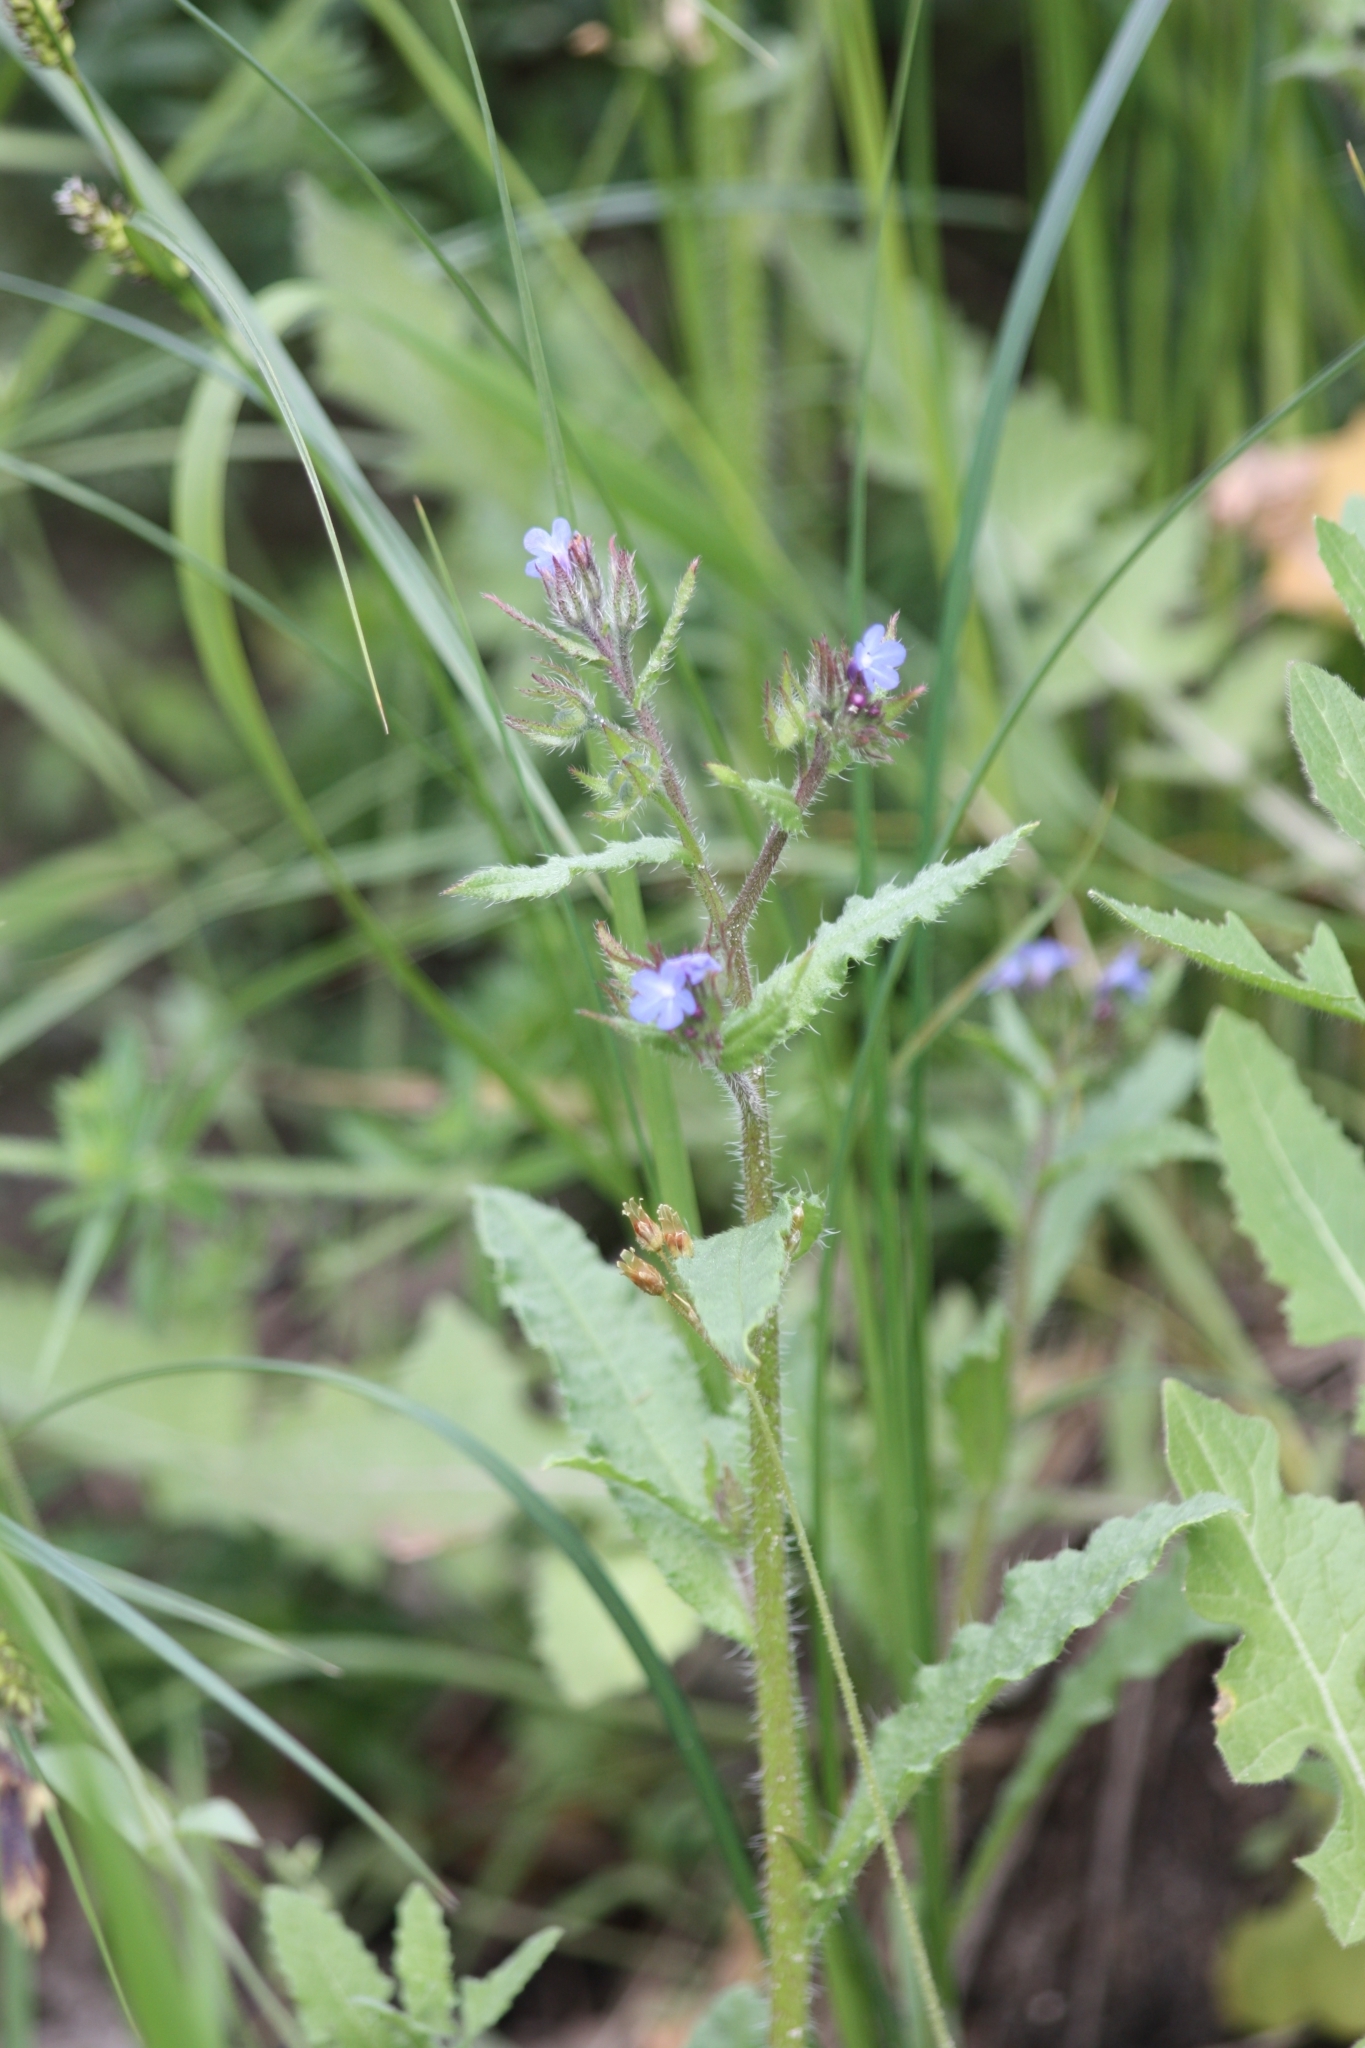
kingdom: Plantae
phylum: Tracheophyta
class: Magnoliopsida
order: Boraginales
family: Boraginaceae
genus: Lycopsis
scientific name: Lycopsis arvensis
